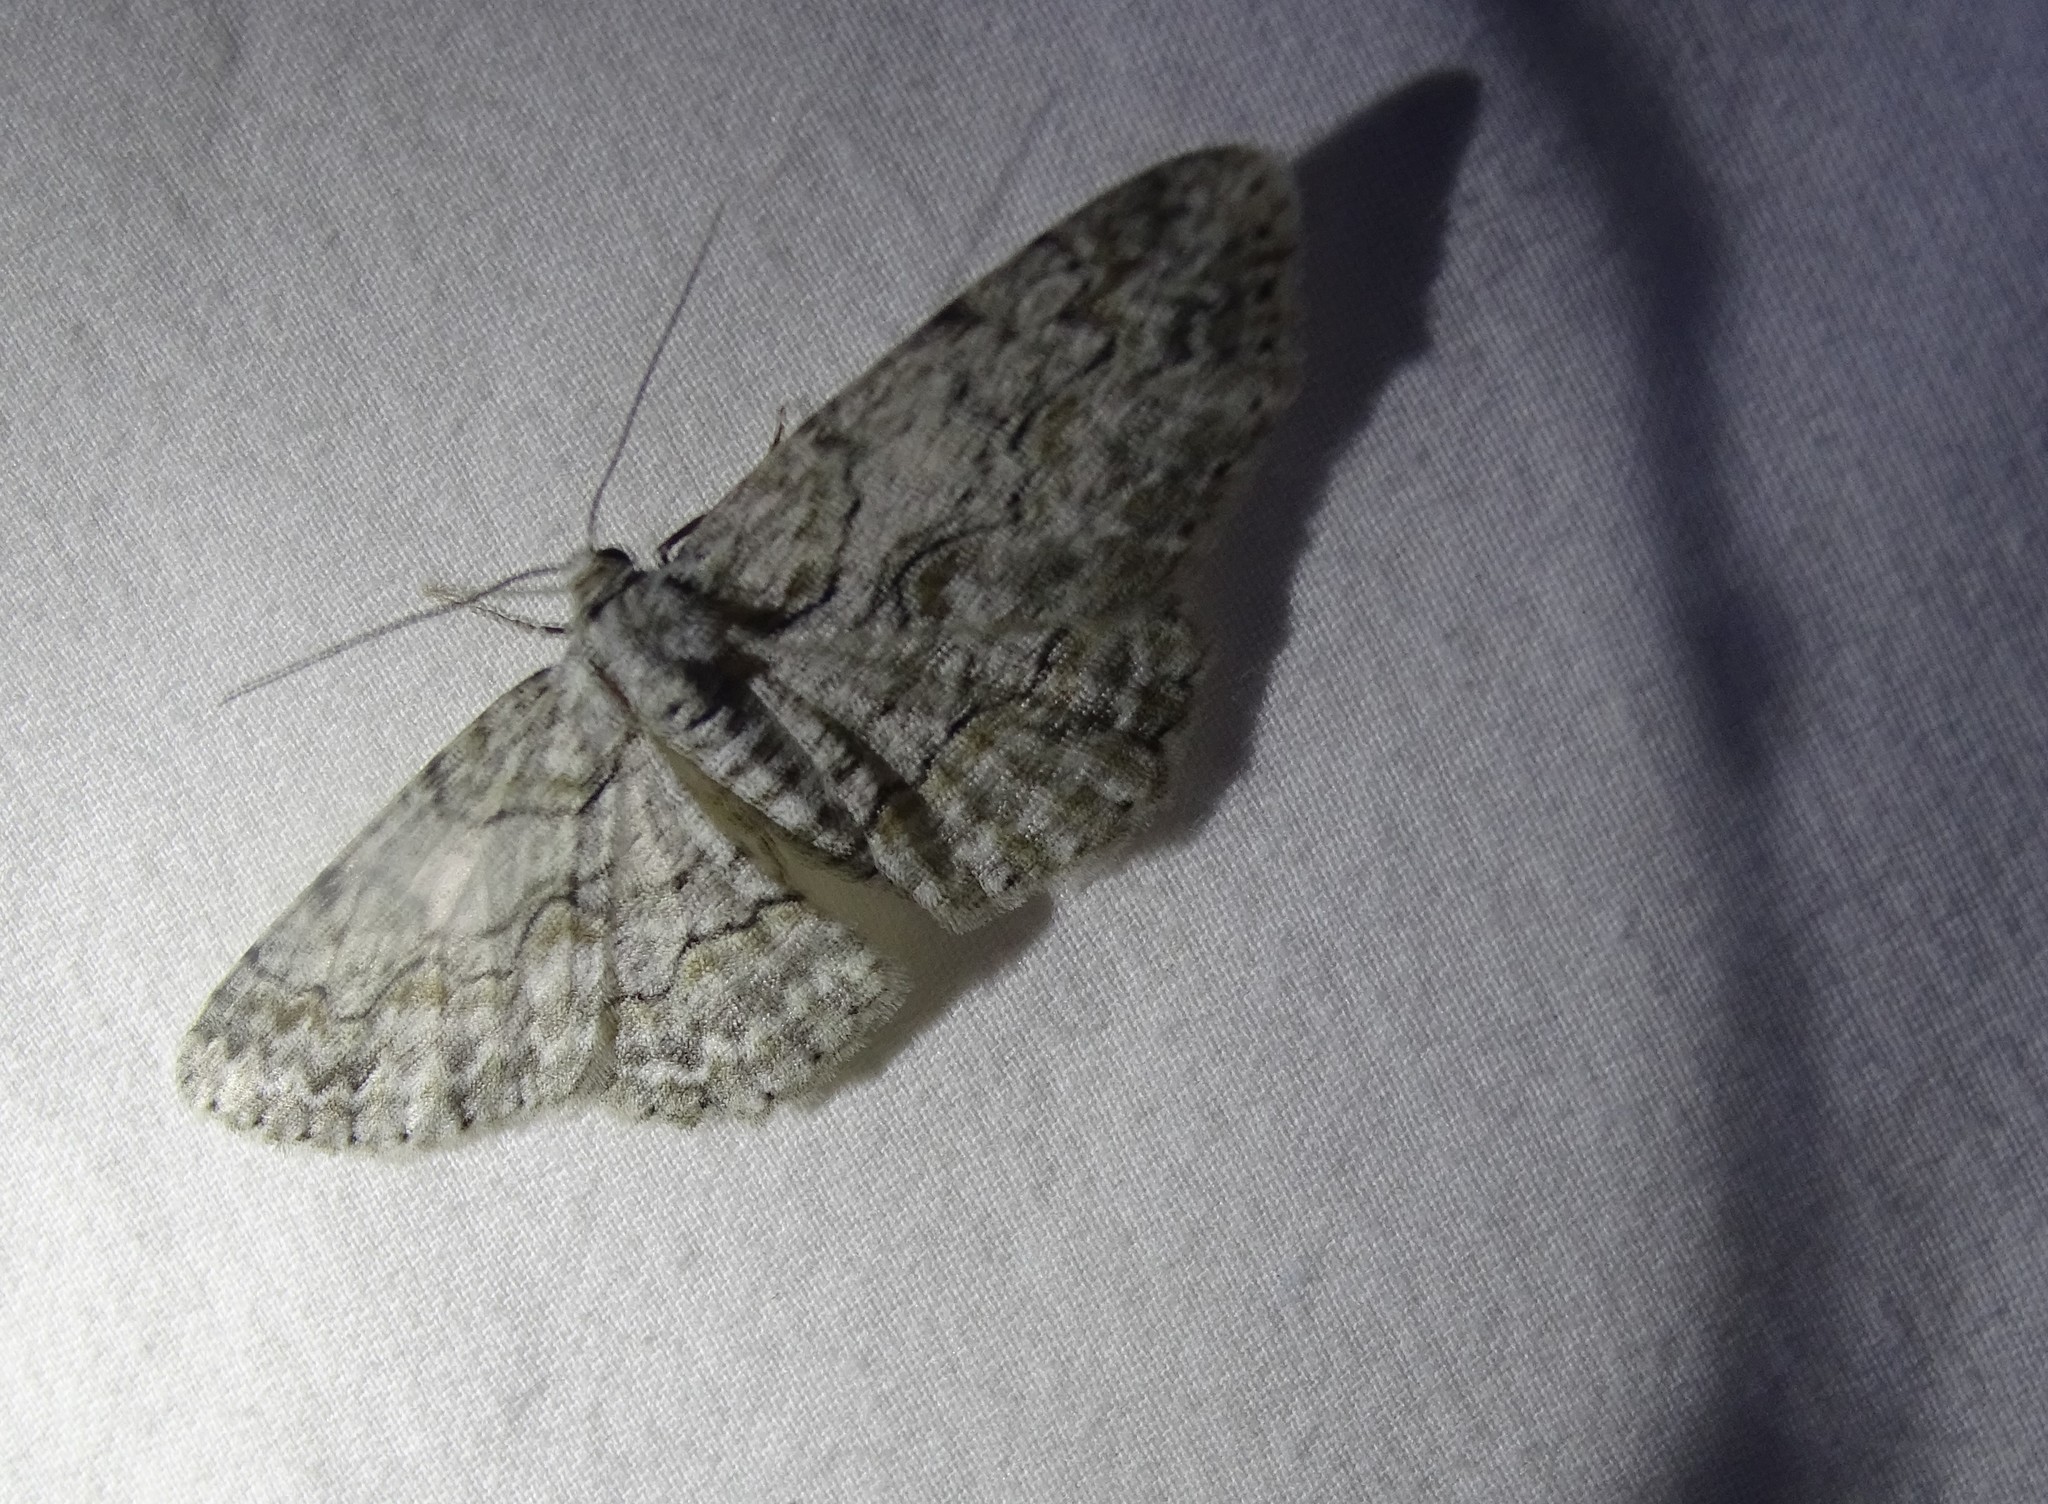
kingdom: Animalia
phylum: Arthropoda
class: Insecta
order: Lepidoptera
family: Geometridae
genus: Iridopsis
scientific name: Iridopsis defectaria
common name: Brown-shaded gray
